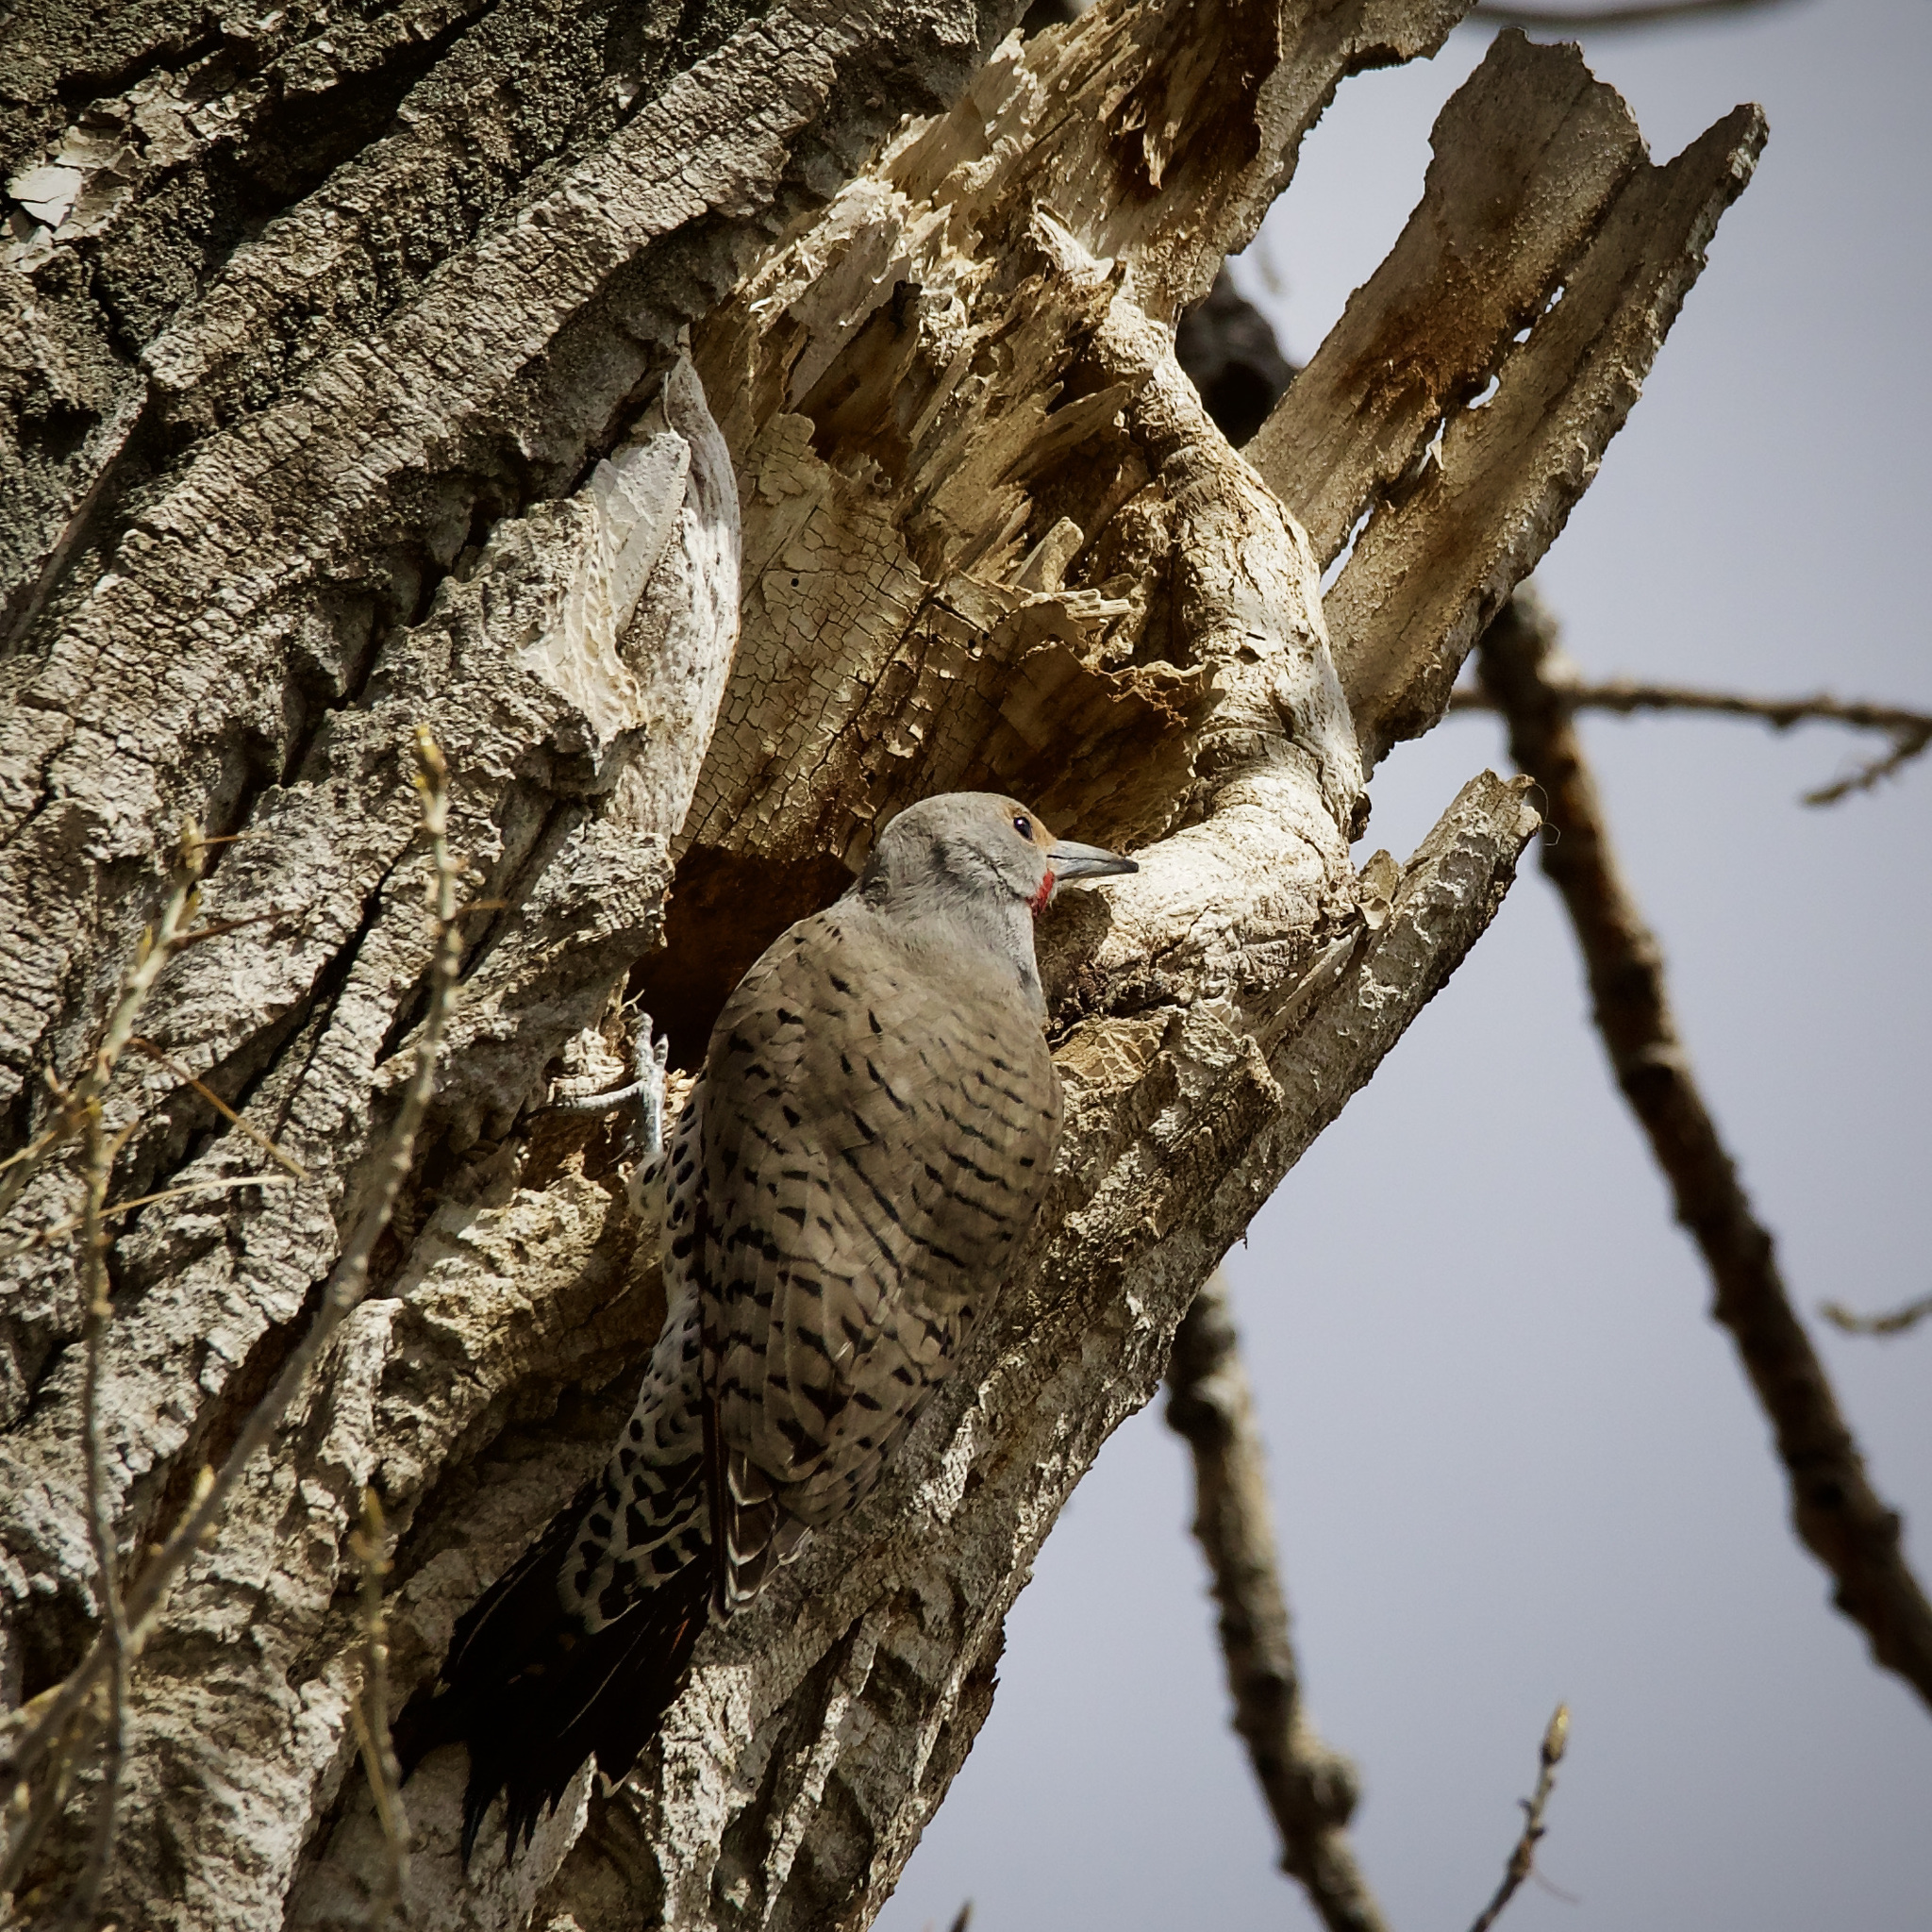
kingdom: Animalia
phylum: Chordata
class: Aves
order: Piciformes
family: Picidae
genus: Colaptes
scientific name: Colaptes auratus
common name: Northern flicker
